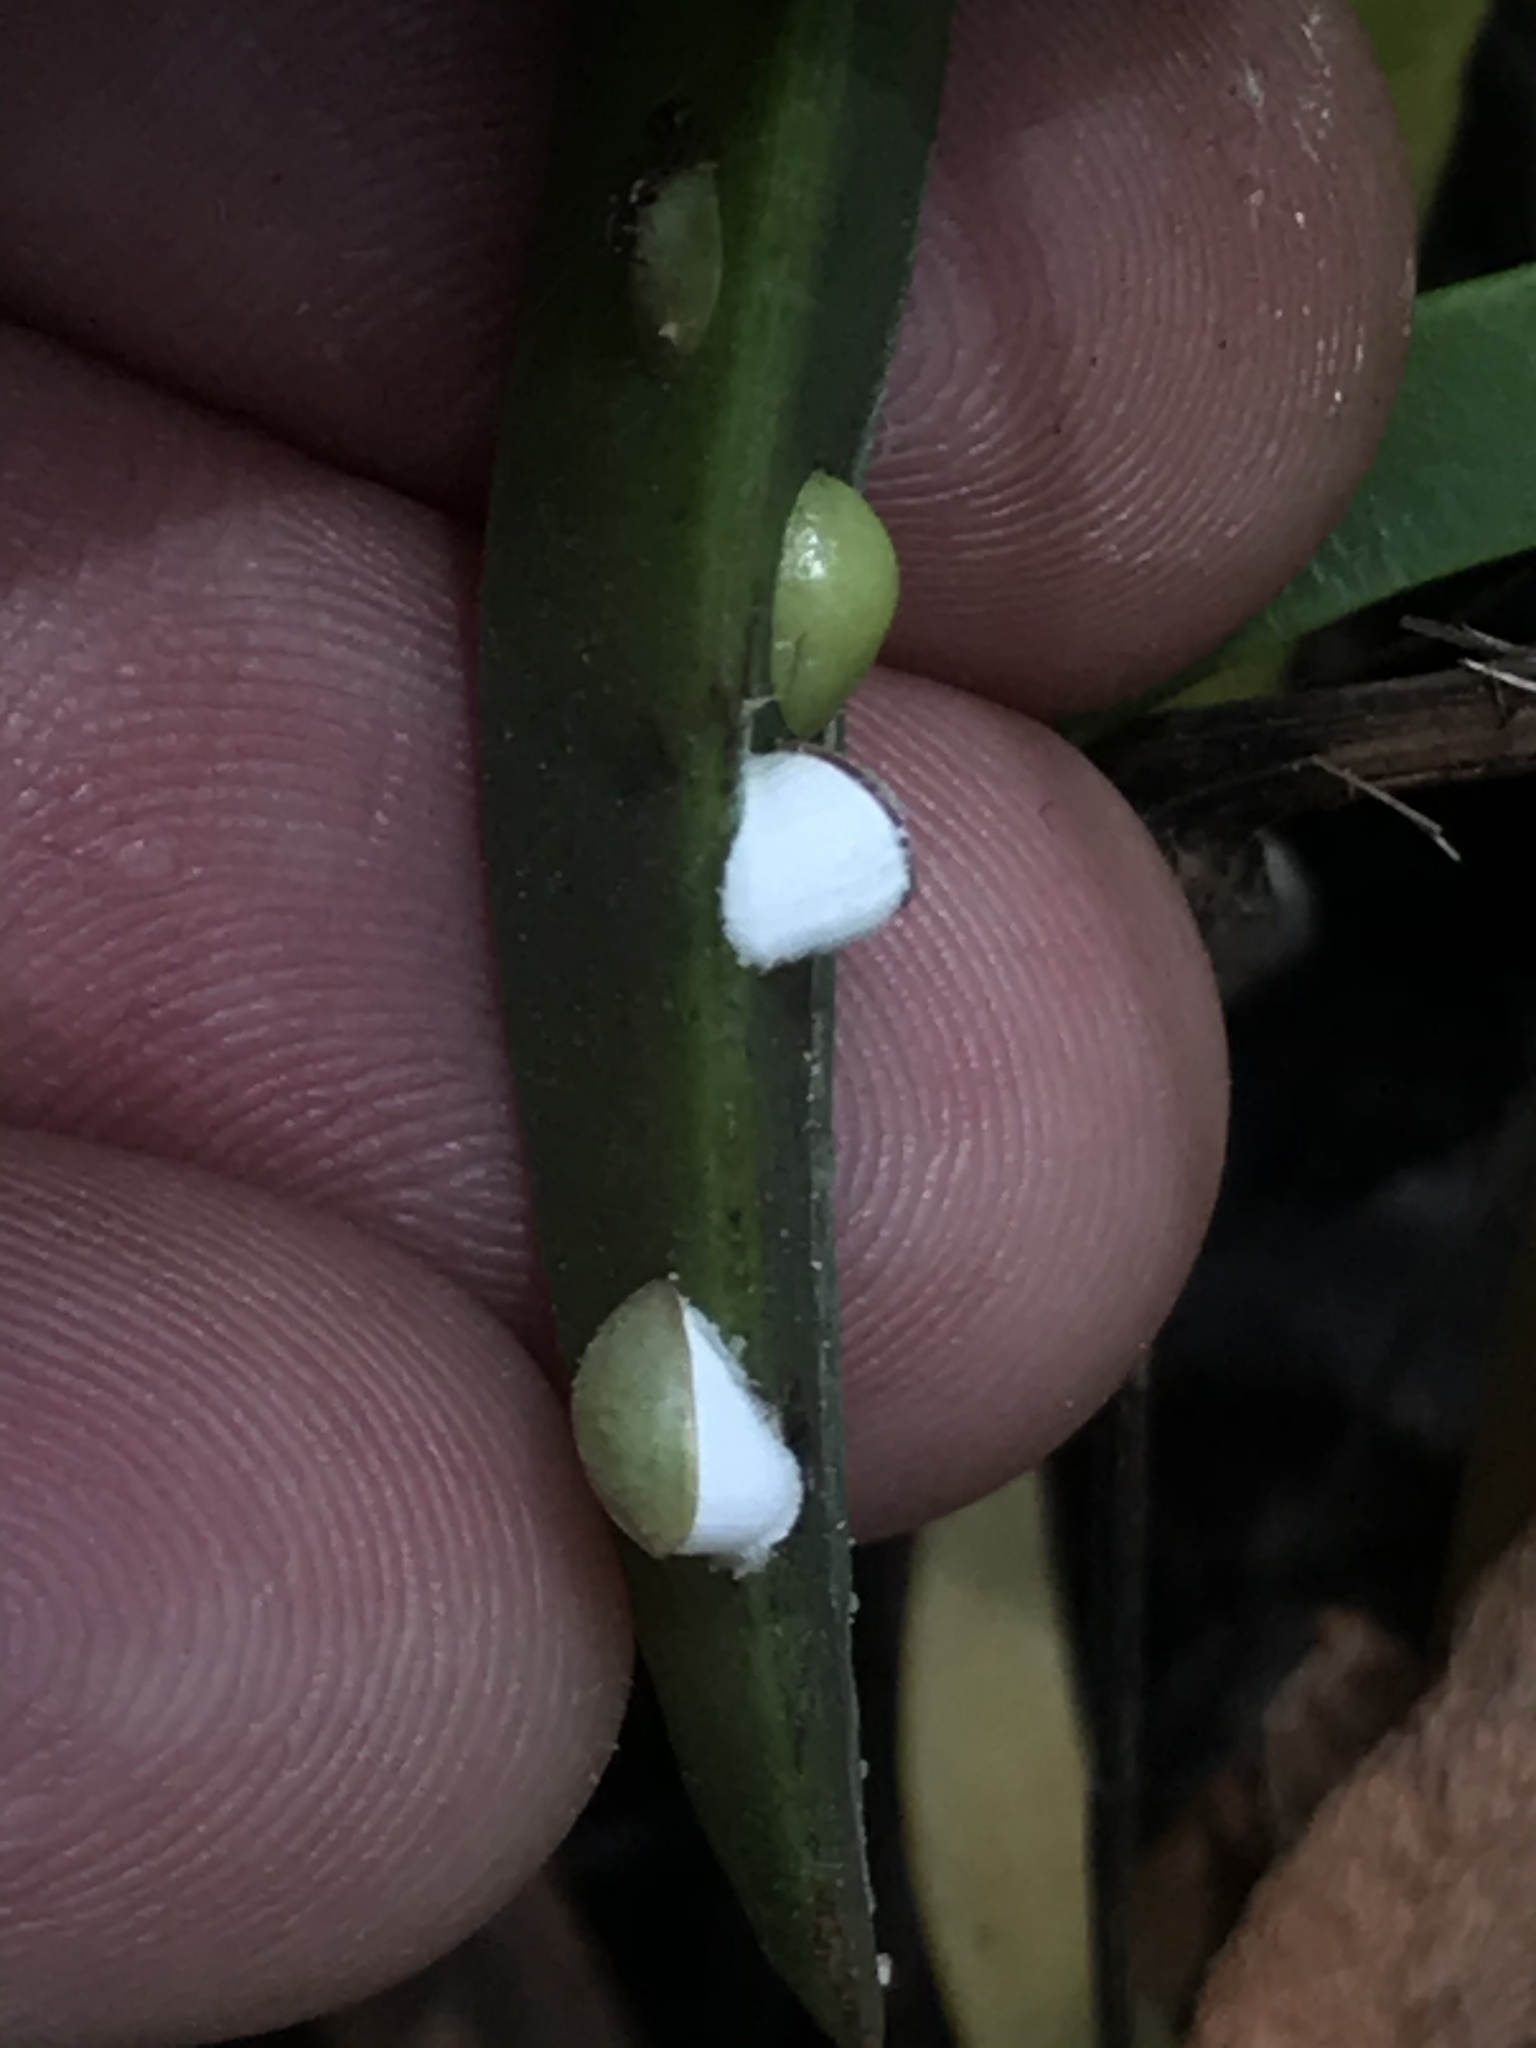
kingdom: Animalia
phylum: Arthropoda
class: Insecta
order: Hemiptera
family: Coccidae
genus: Pulvinariella
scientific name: Pulvinariella mesembryanthemi
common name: Cottony pigface scale
